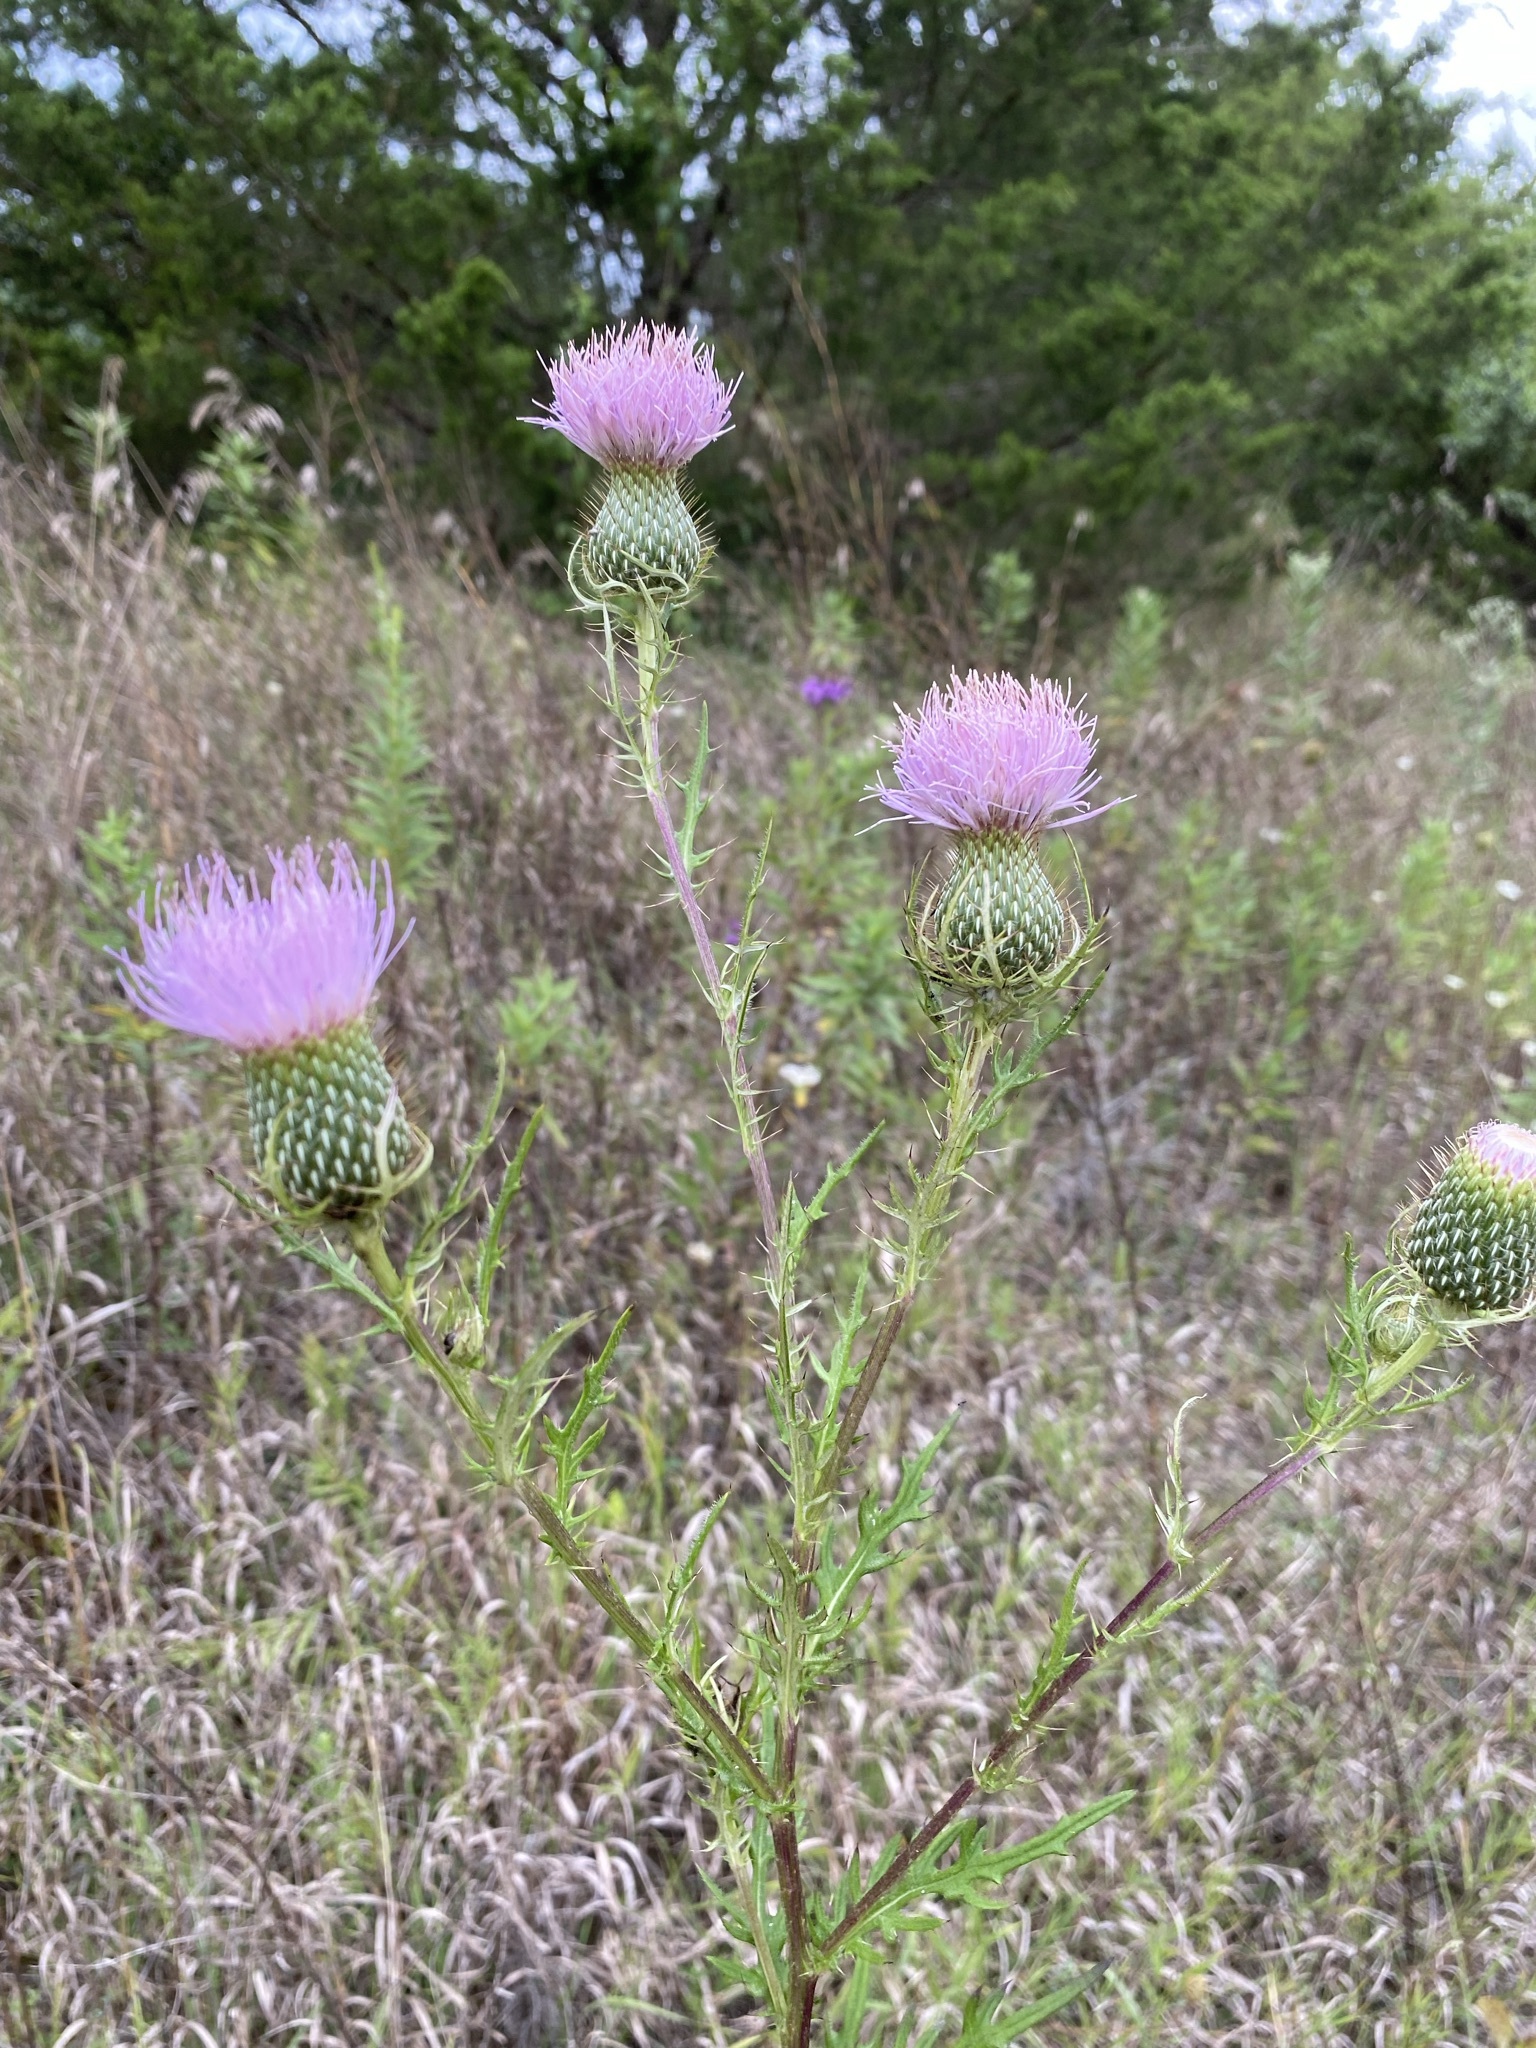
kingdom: Plantae
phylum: Tracheophyta
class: Magnoliopsida
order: Asterales
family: Asteraceae
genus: Cirsium
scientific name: Cirsium discolor
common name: Field thistle
